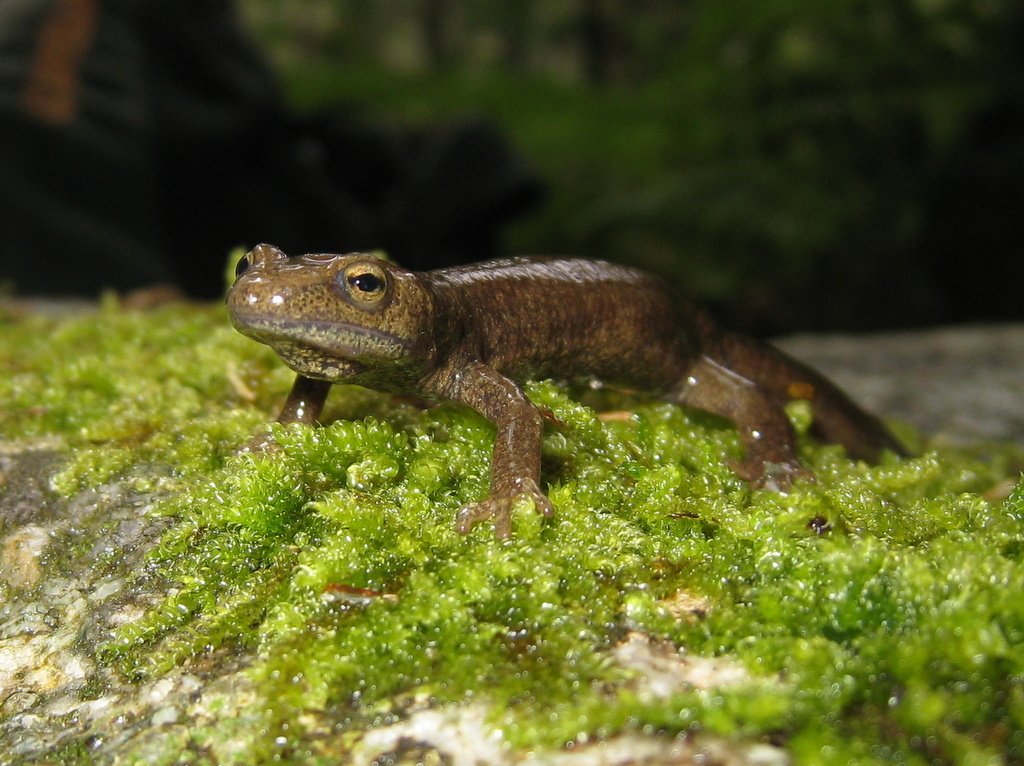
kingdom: Animalia
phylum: Chordata
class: Amphibia
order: Caudata
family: Salamandridae
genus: Euproctus
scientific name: Euproctus montanus
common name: Corsican brook salamander
